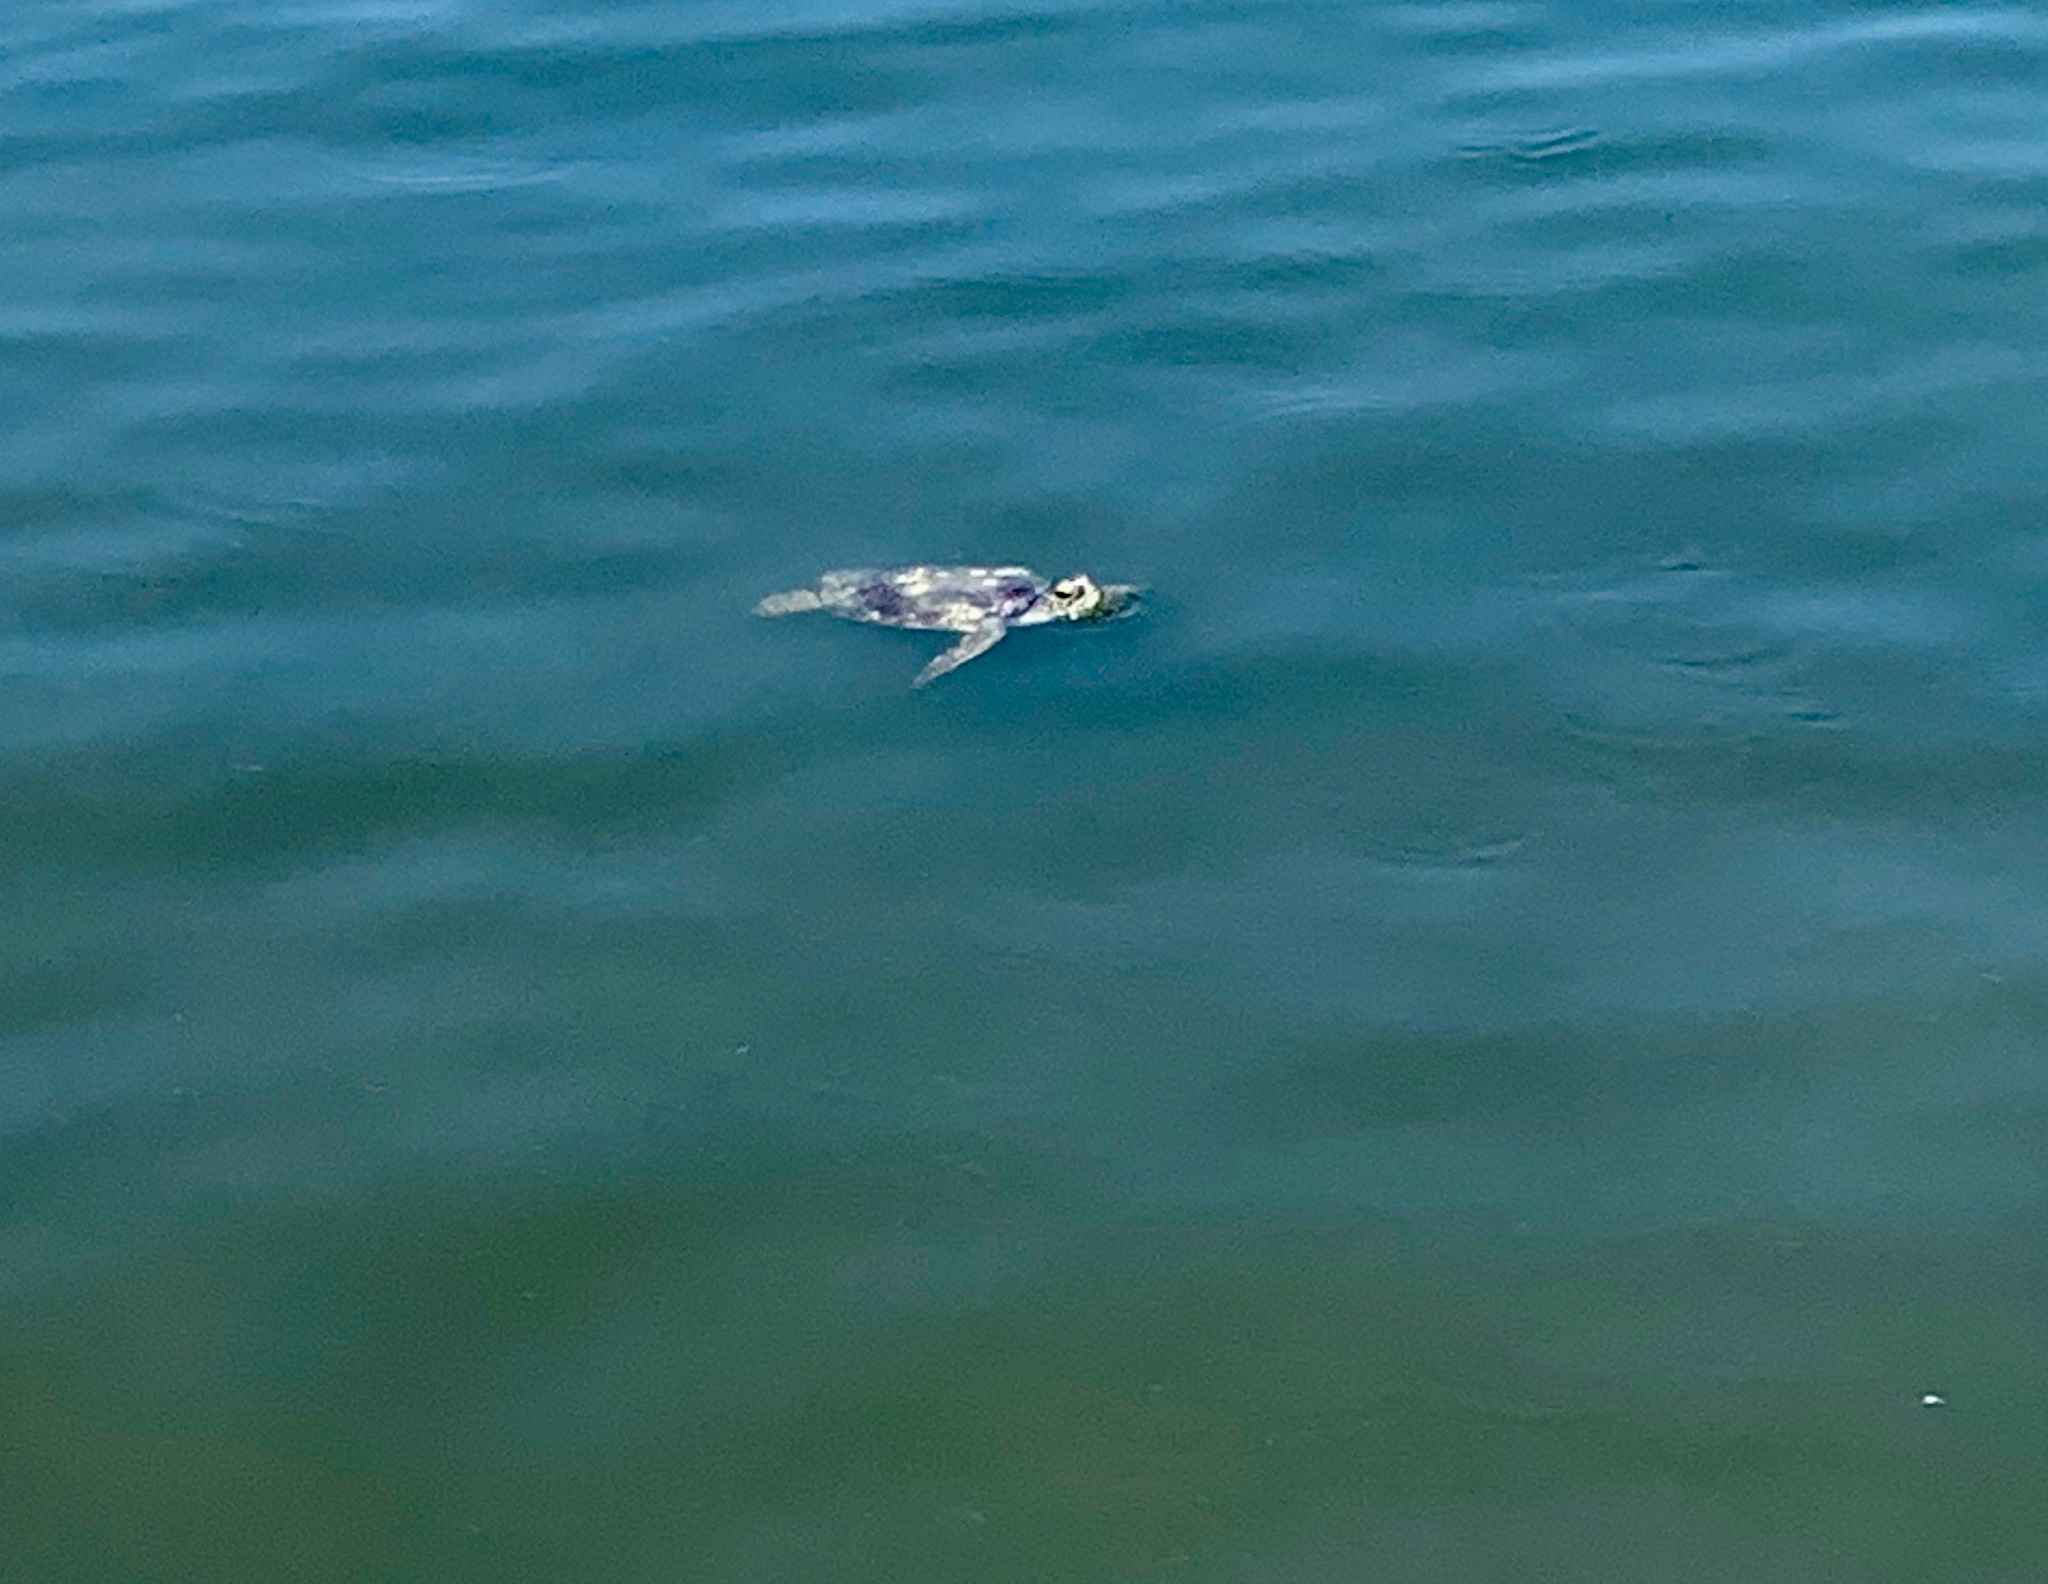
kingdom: Animalia
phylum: Chordata
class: Testudines
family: Cheloniidae
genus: Chelonia
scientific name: Chelonia mydas
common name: Green turtle
